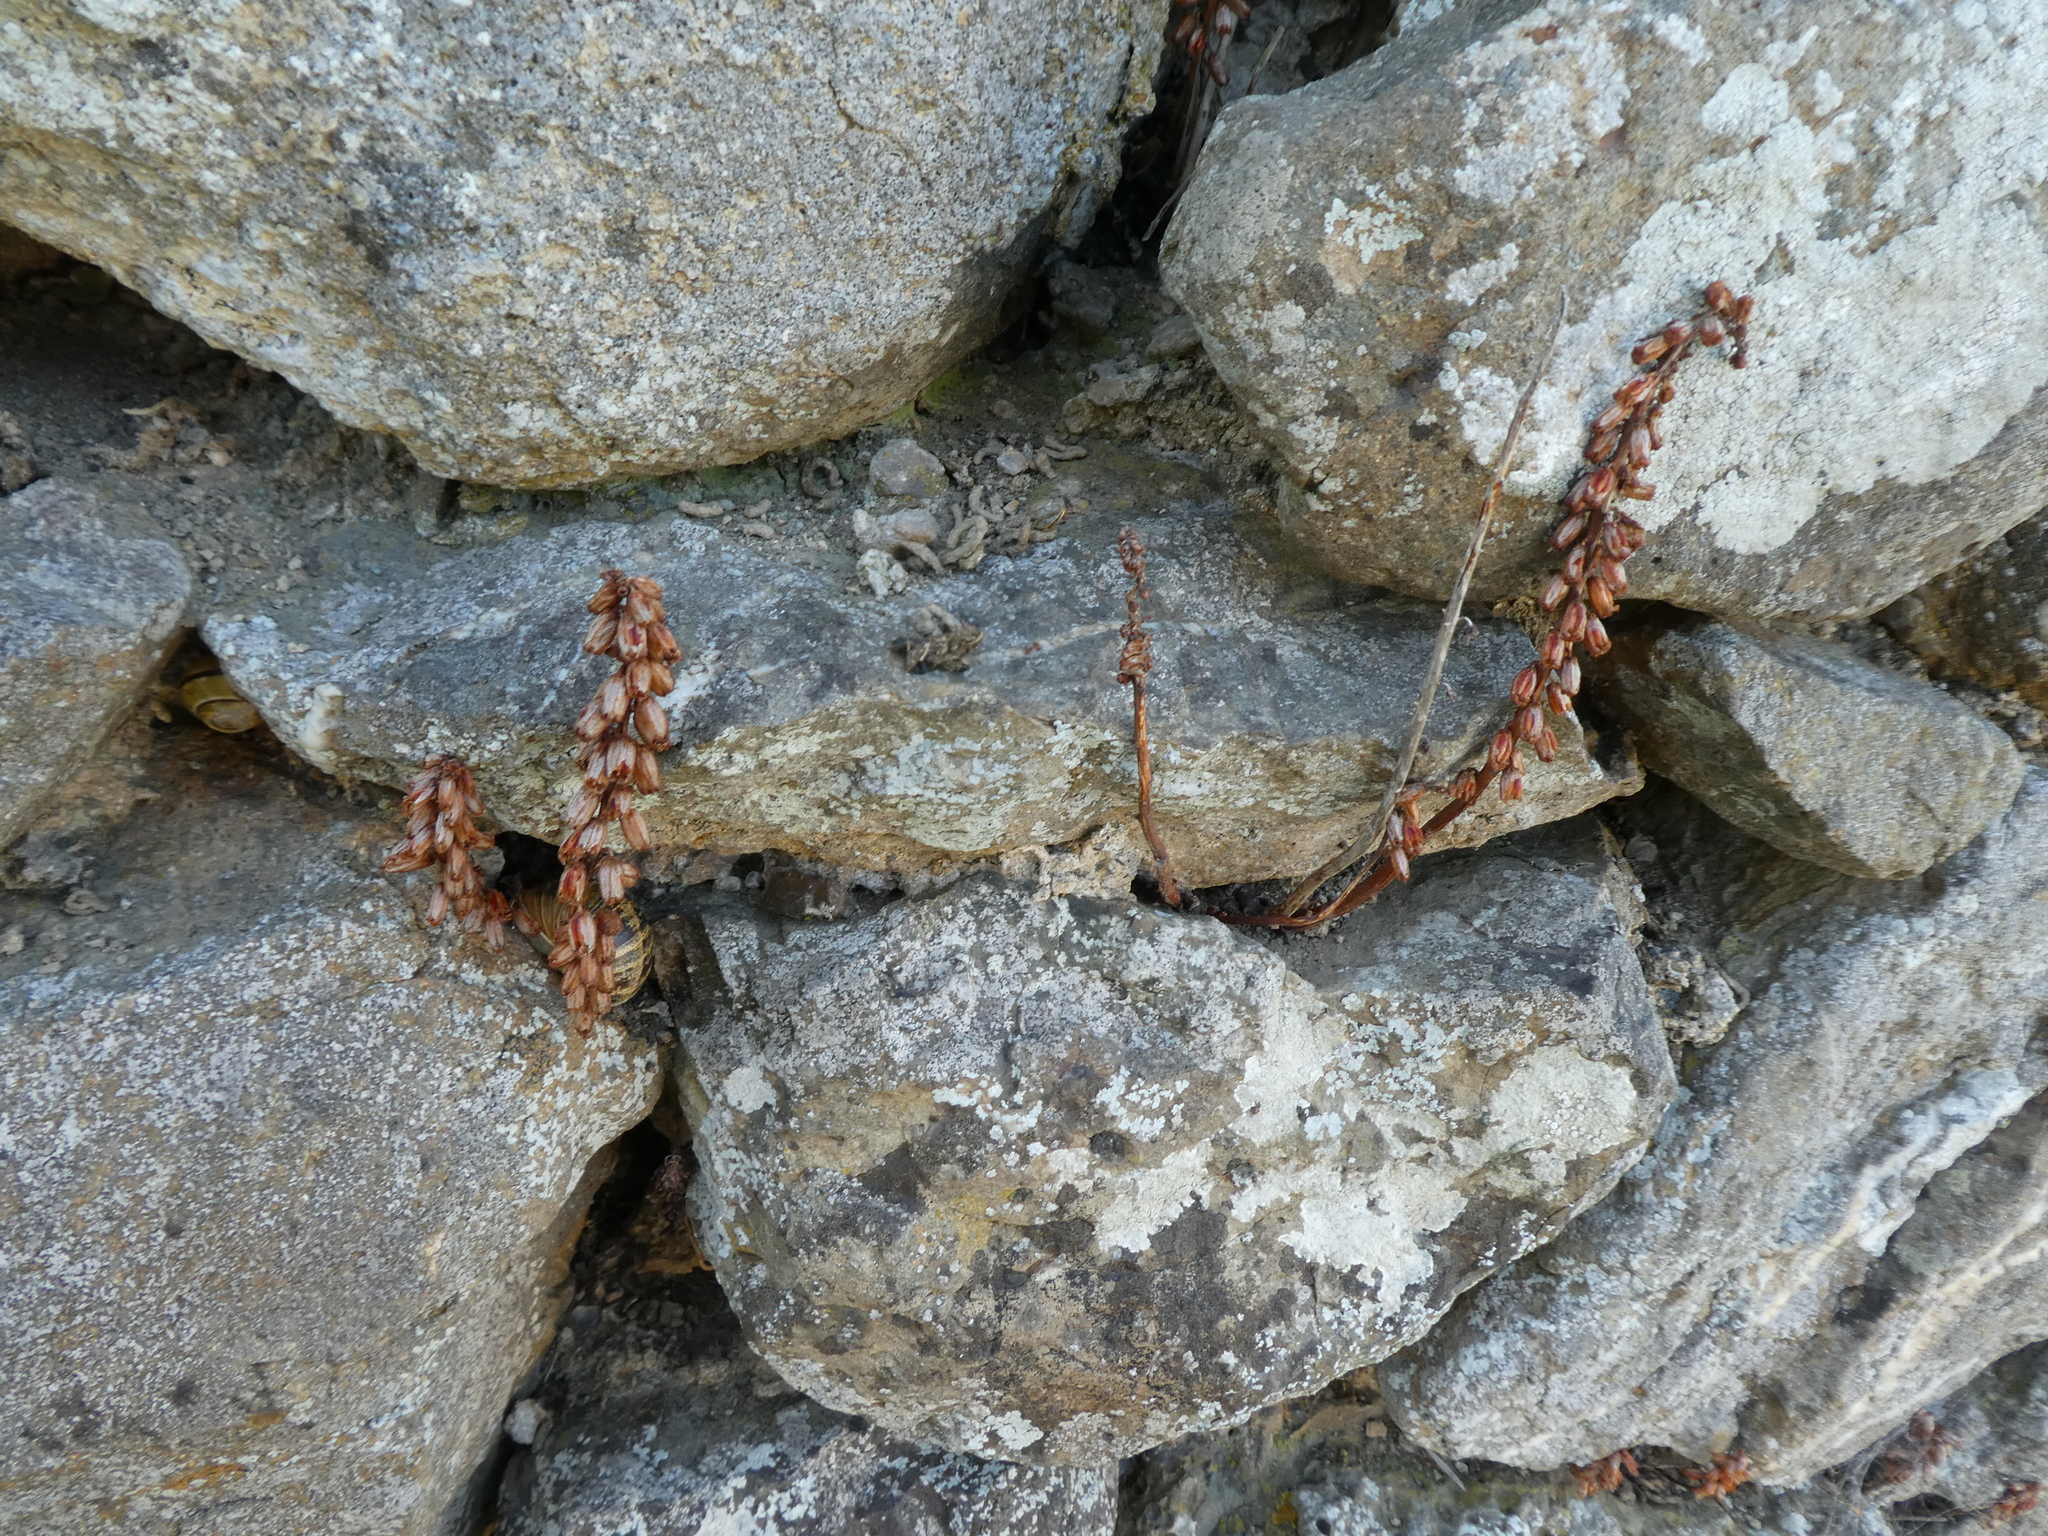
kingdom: Plantae
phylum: Tracheophyta
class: Magnoliopsida
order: Saxifragales
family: Crassulaceae
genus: Umbilicus
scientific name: Umbilicus rupestris
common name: Navelwort
